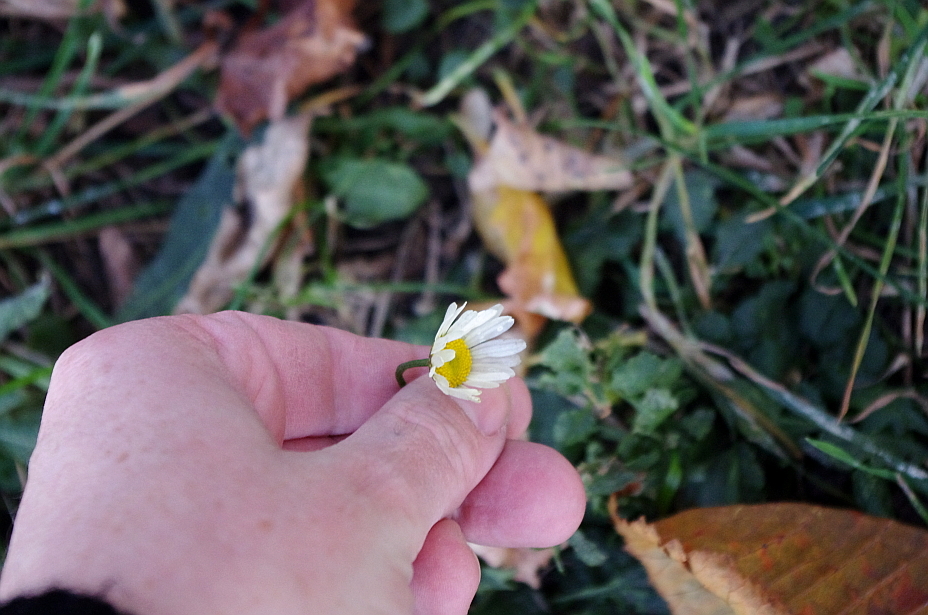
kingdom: Plantae
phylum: Tracheophyta
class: Magnoliopsida
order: Asterales
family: Asteraceae
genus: Leucanthemum
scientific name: Leucanthemum vulgare
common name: Oxeye daisy
